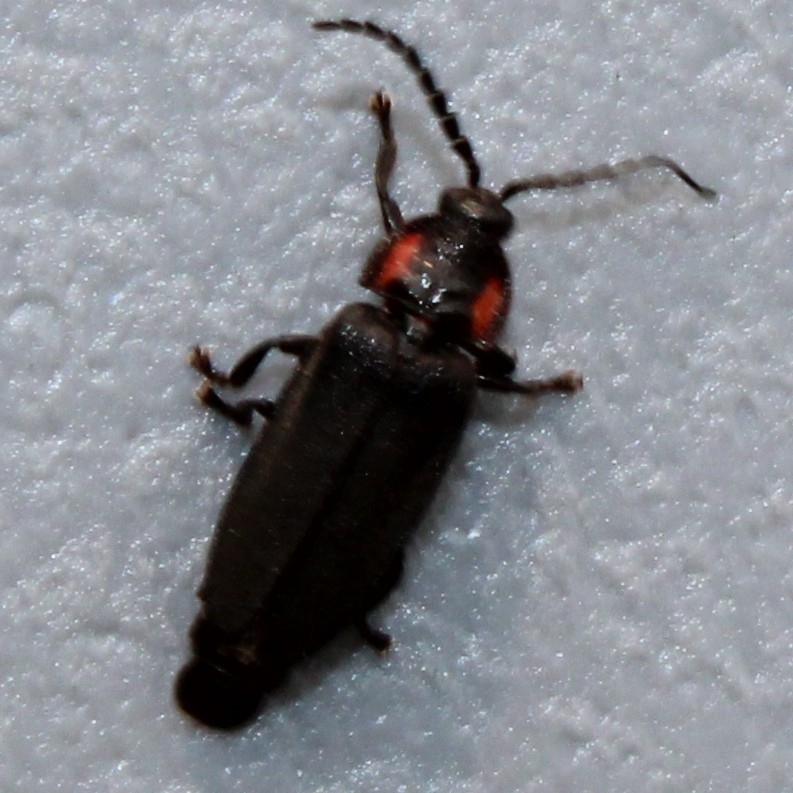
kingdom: Animalia
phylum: Arthropoda
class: Insecta
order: Coleoptera
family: Lampyridae
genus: Pyropyga
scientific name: Pyropyga nigricans
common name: Dark firefly
